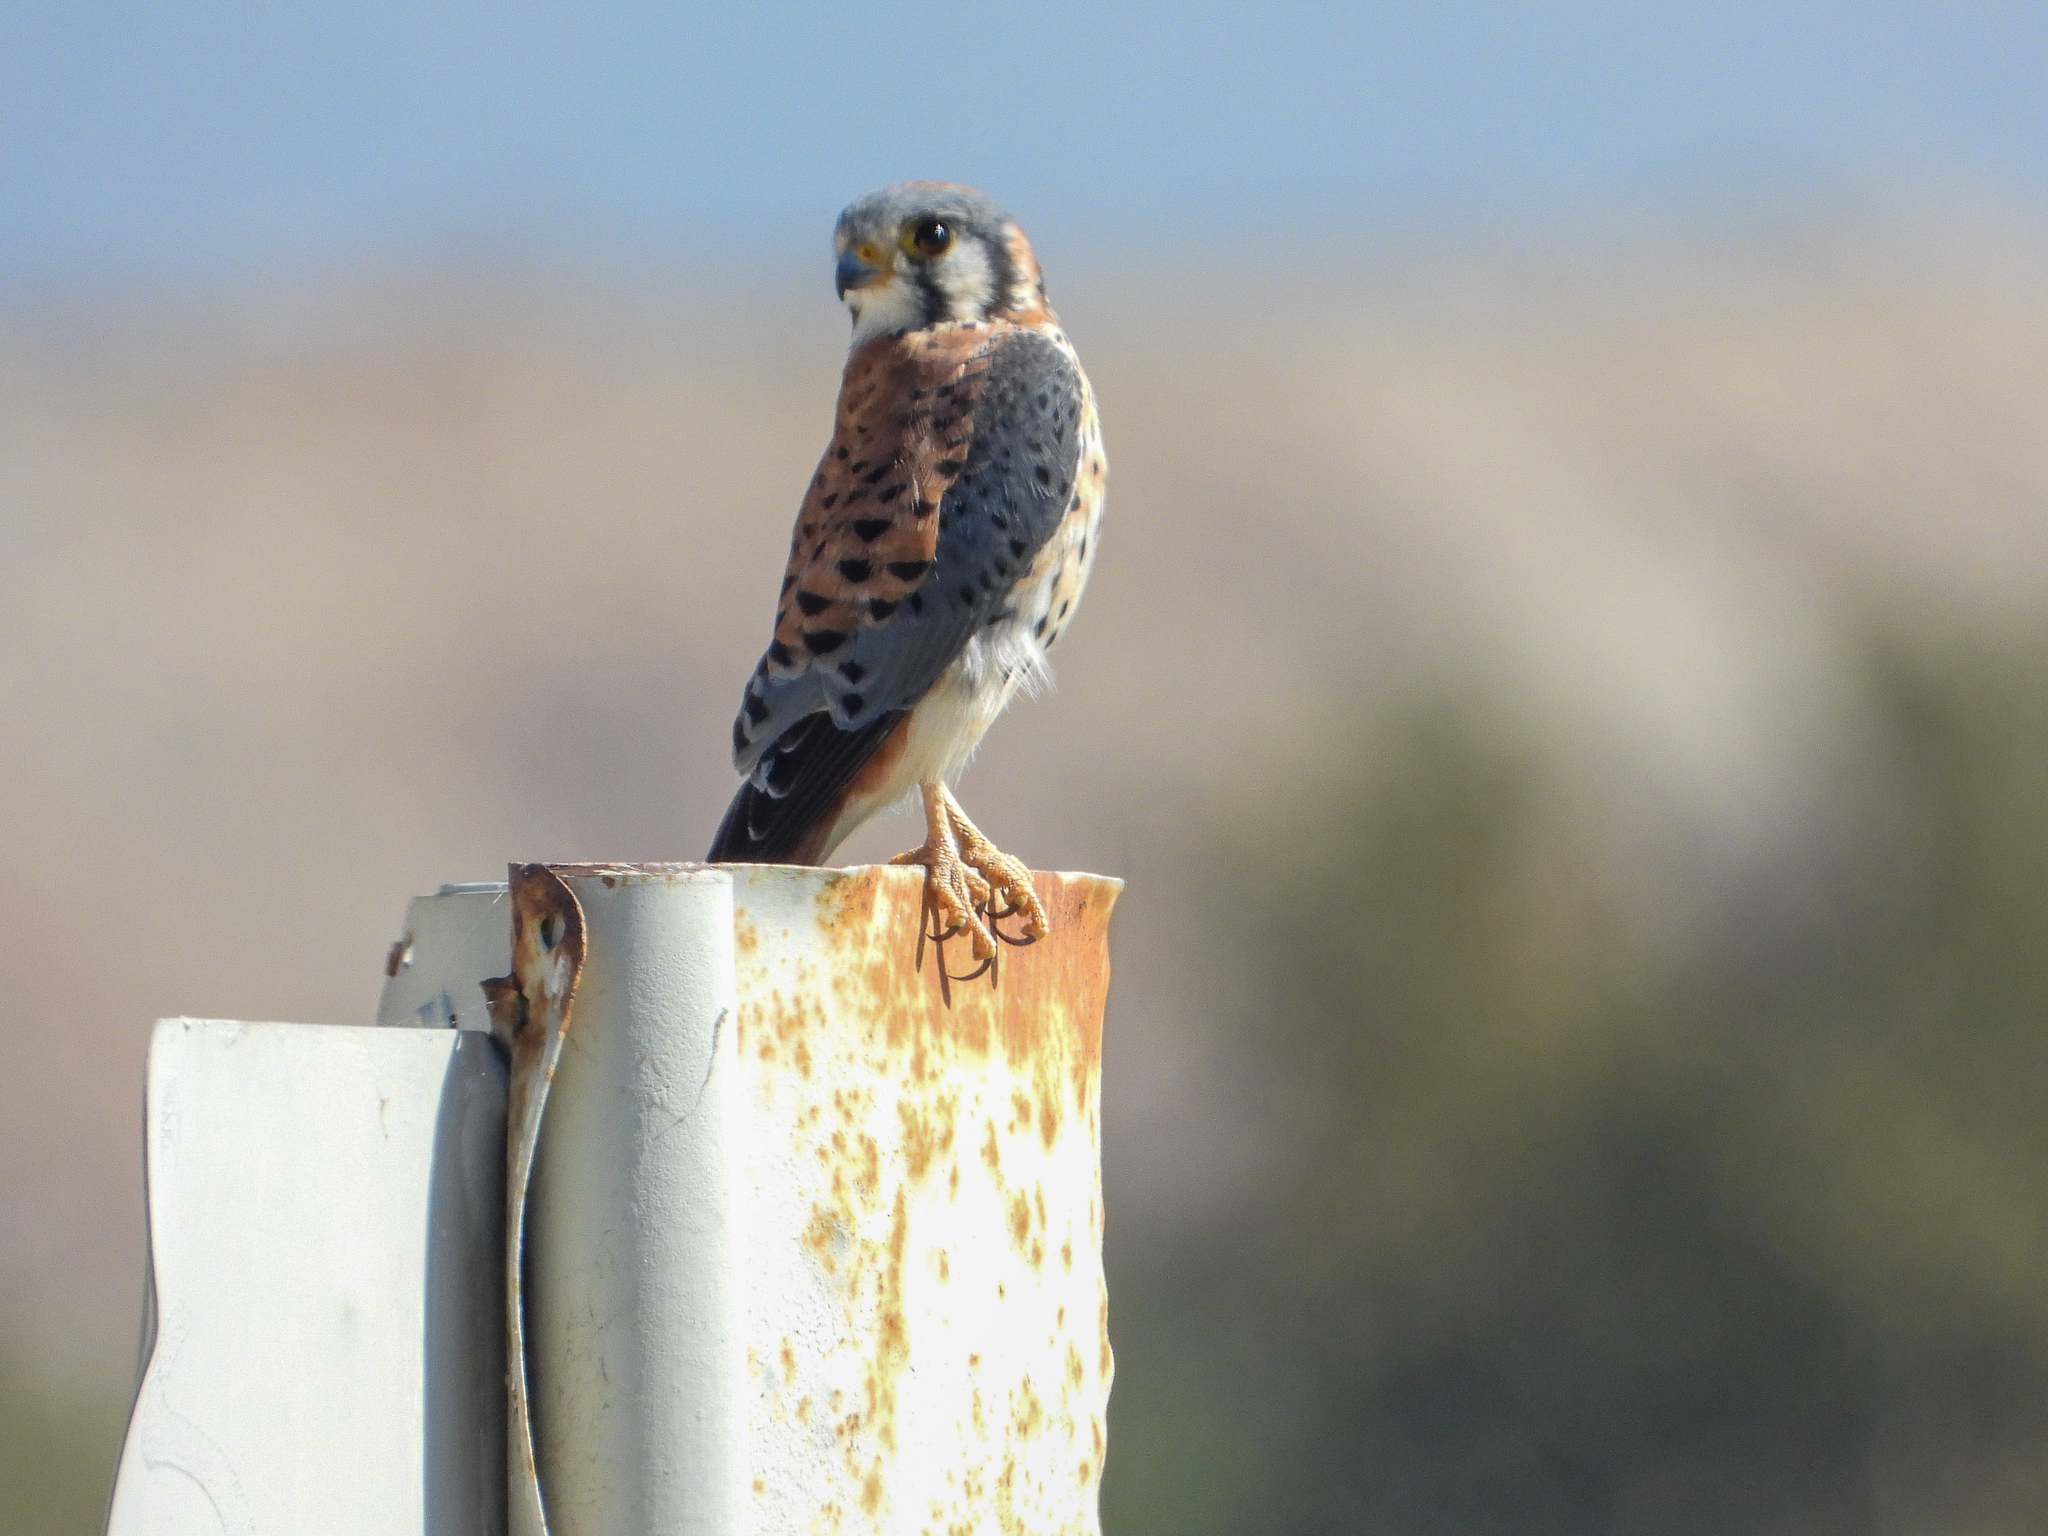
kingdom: Animalia
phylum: Chordata
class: Aves
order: Falconiformes
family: Falconidae
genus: Falco
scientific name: Falco sparverius
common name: American kestrel
